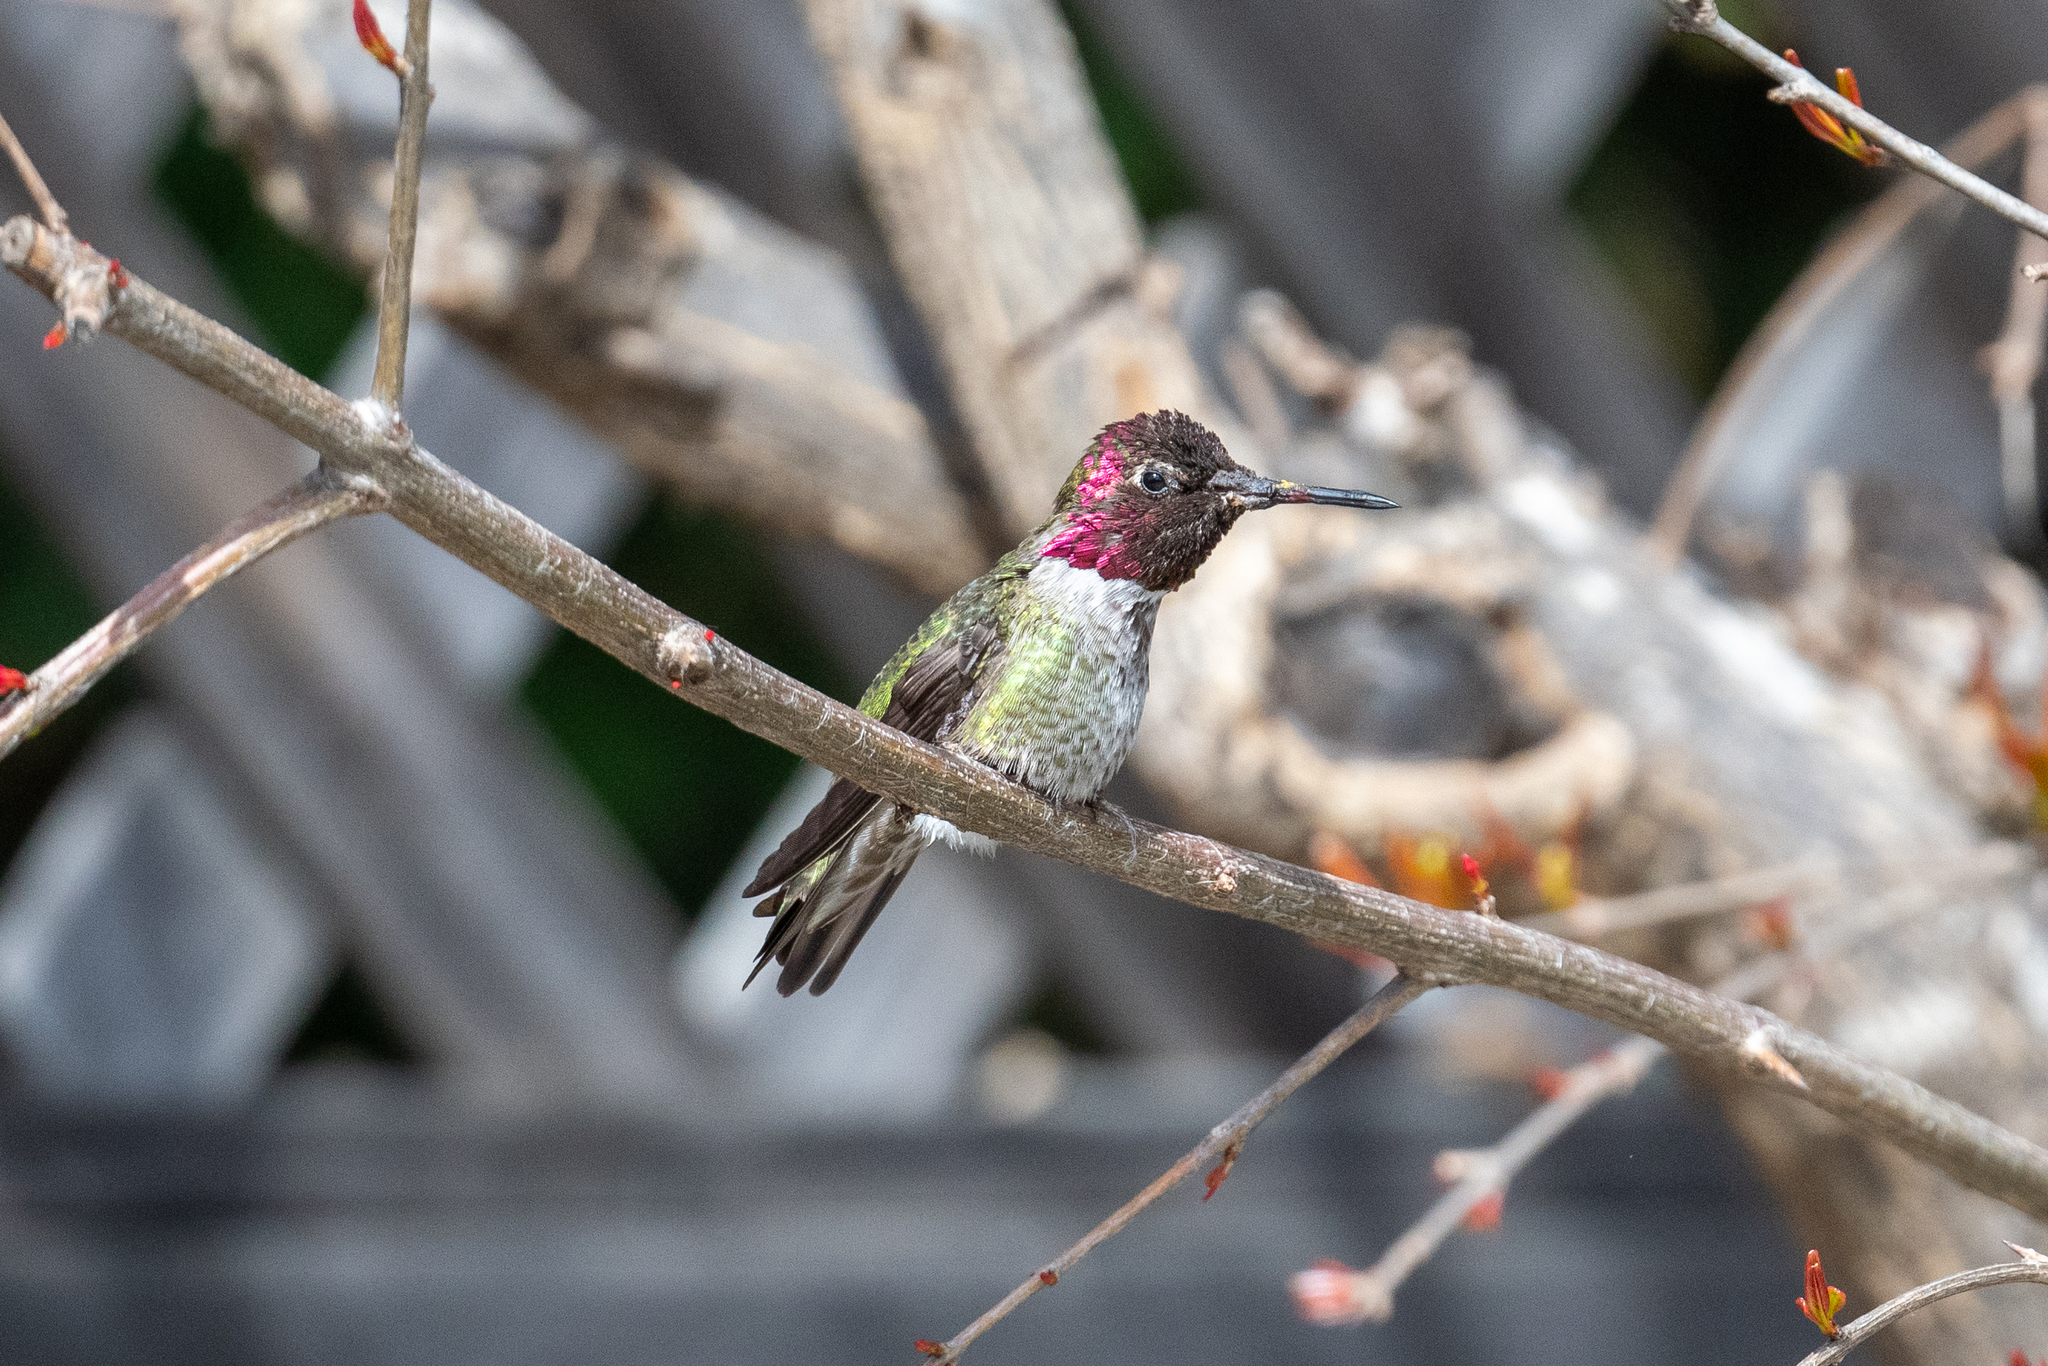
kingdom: Animalia
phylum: Chordata
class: Aves
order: Apodiformes
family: Trochilidae
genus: Calypte
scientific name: Calypte anna
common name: Anna's hummingbird
